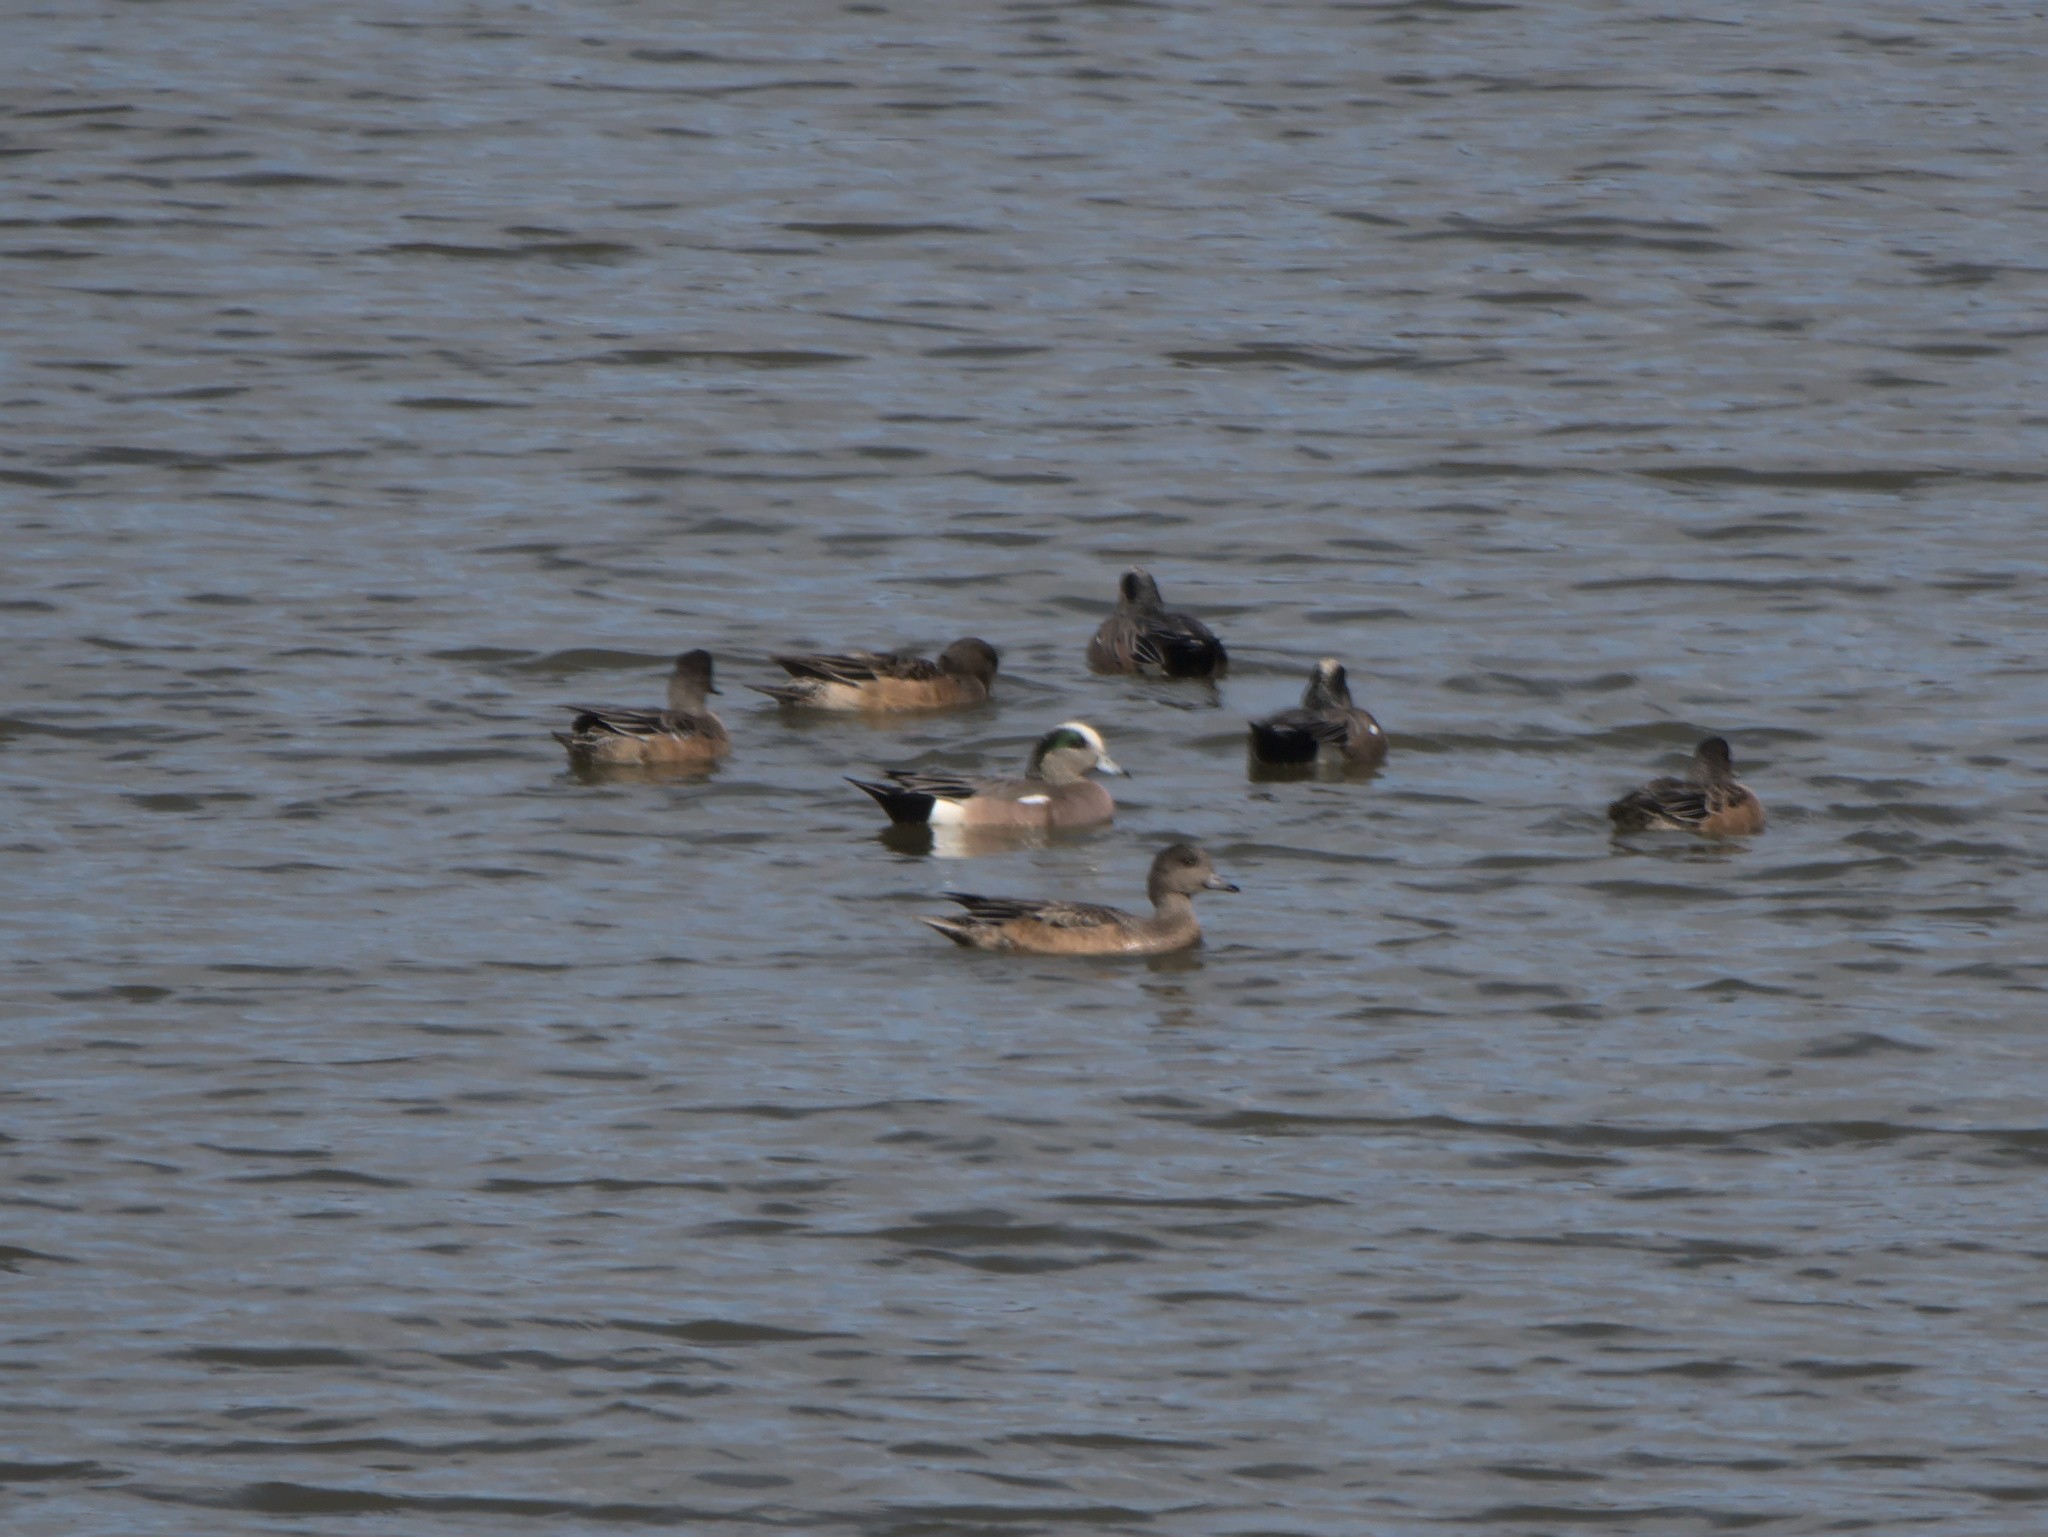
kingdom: Animalia
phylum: Chordata
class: Aves
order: Anseriformes
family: Anatidae
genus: Mareca
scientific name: Mareca americana
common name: American wigeon
